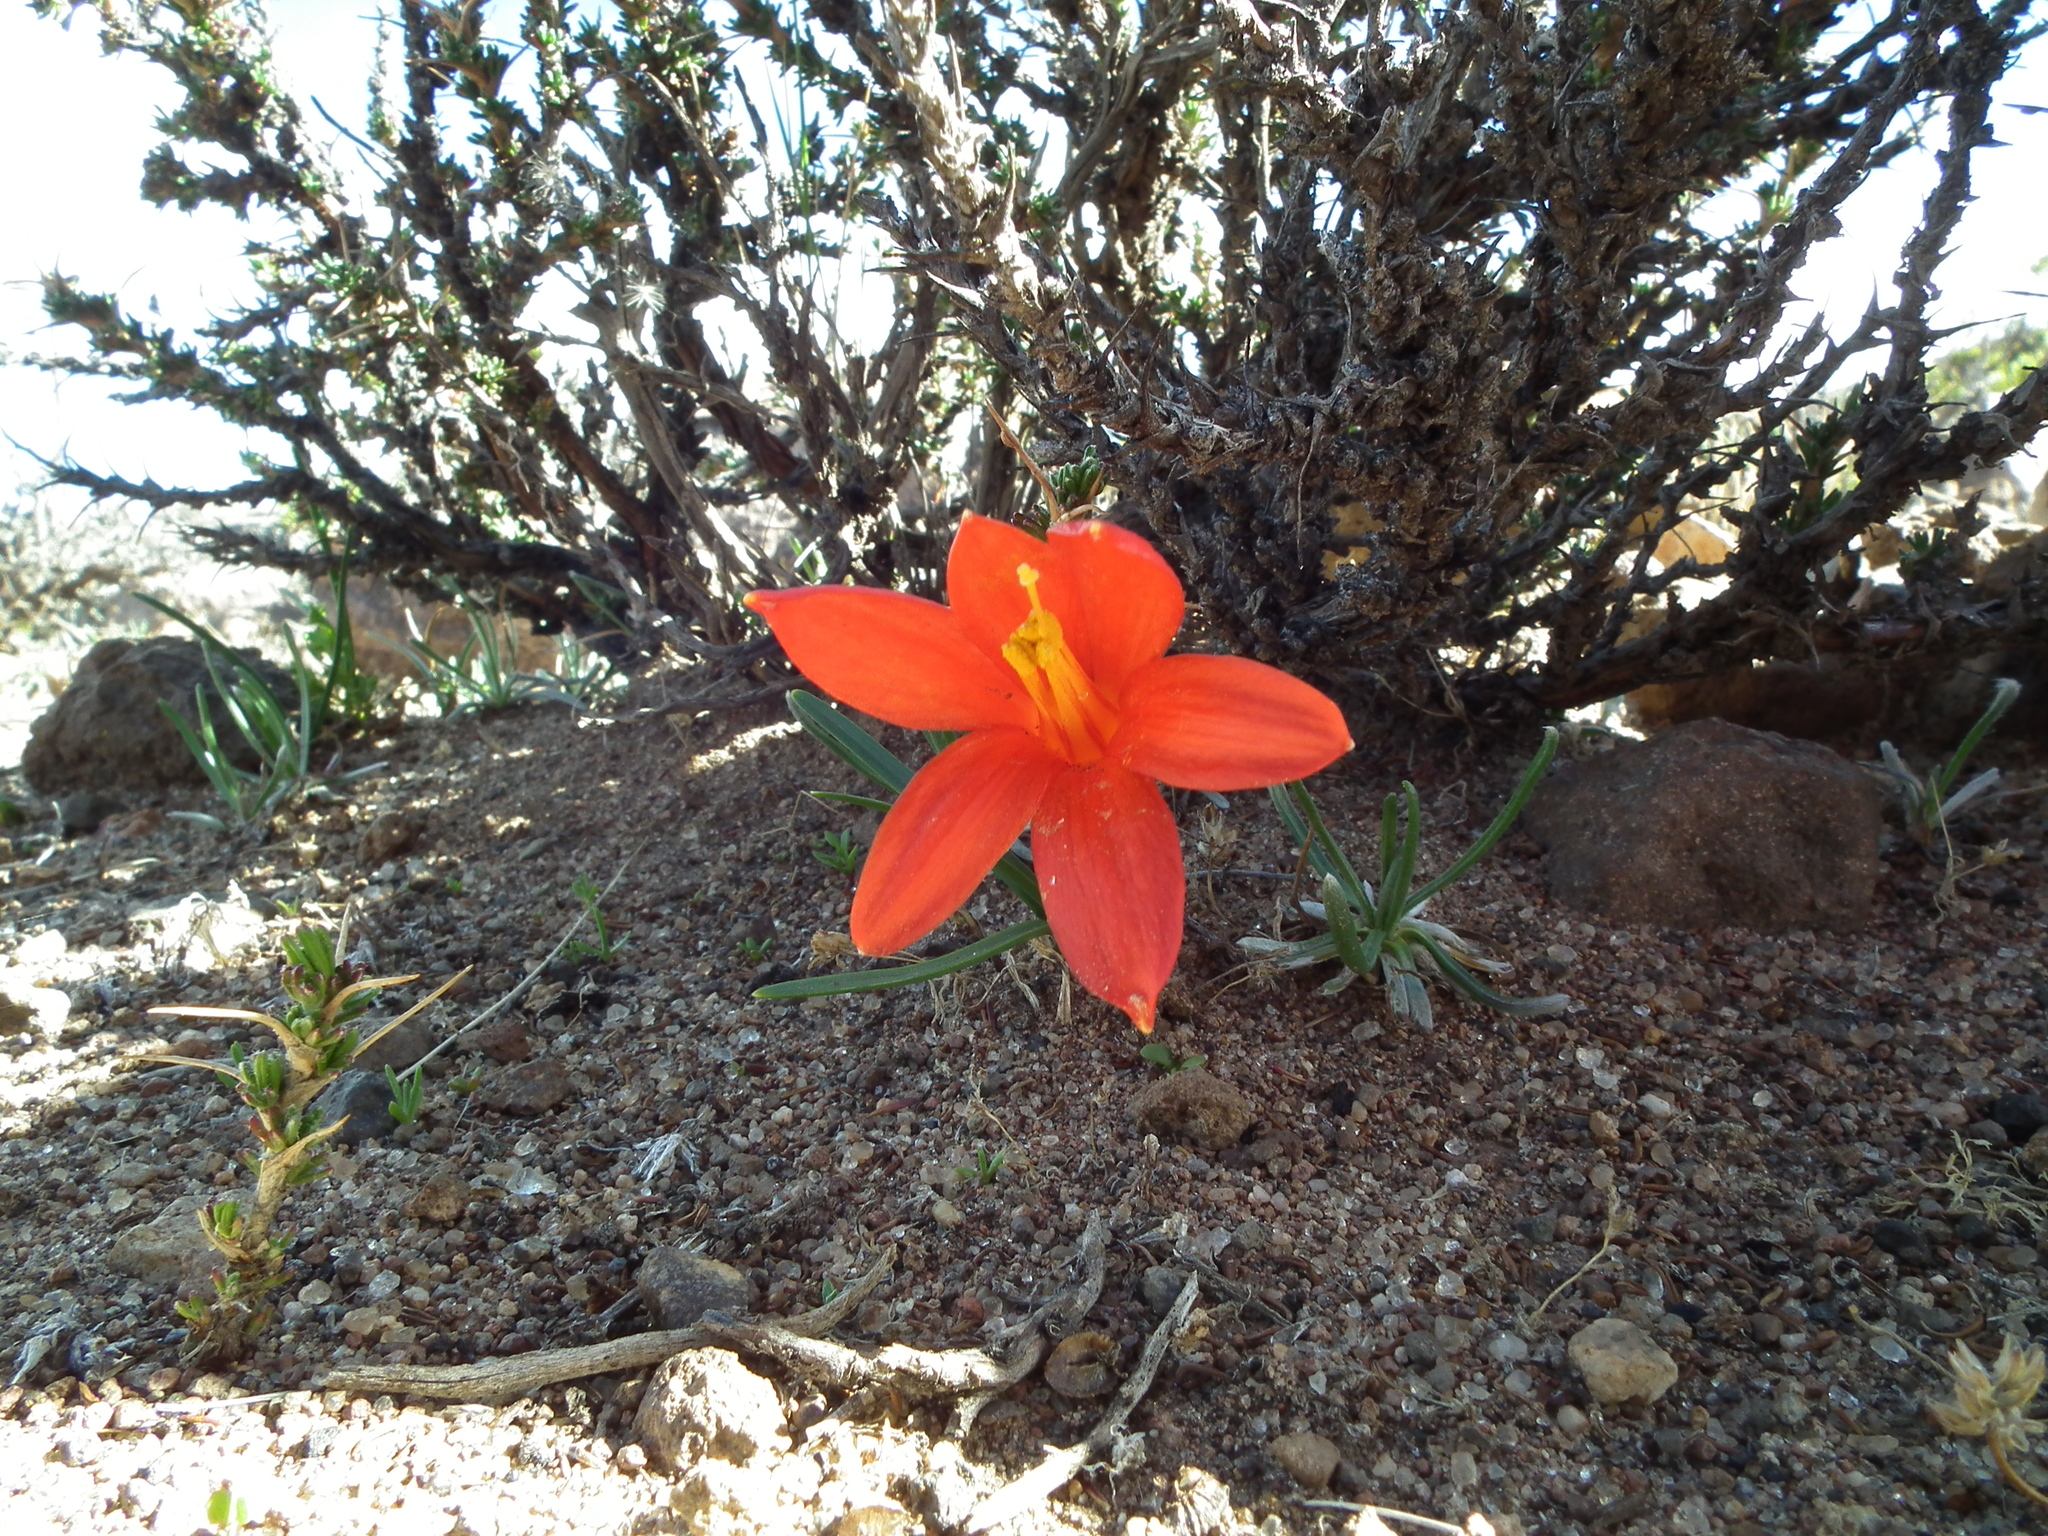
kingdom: Plantae
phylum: Tracheophyta
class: Liliopsida
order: Asparagales
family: Amaryllidaceae
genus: Clinanthus
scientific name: Clinanthus humilis
